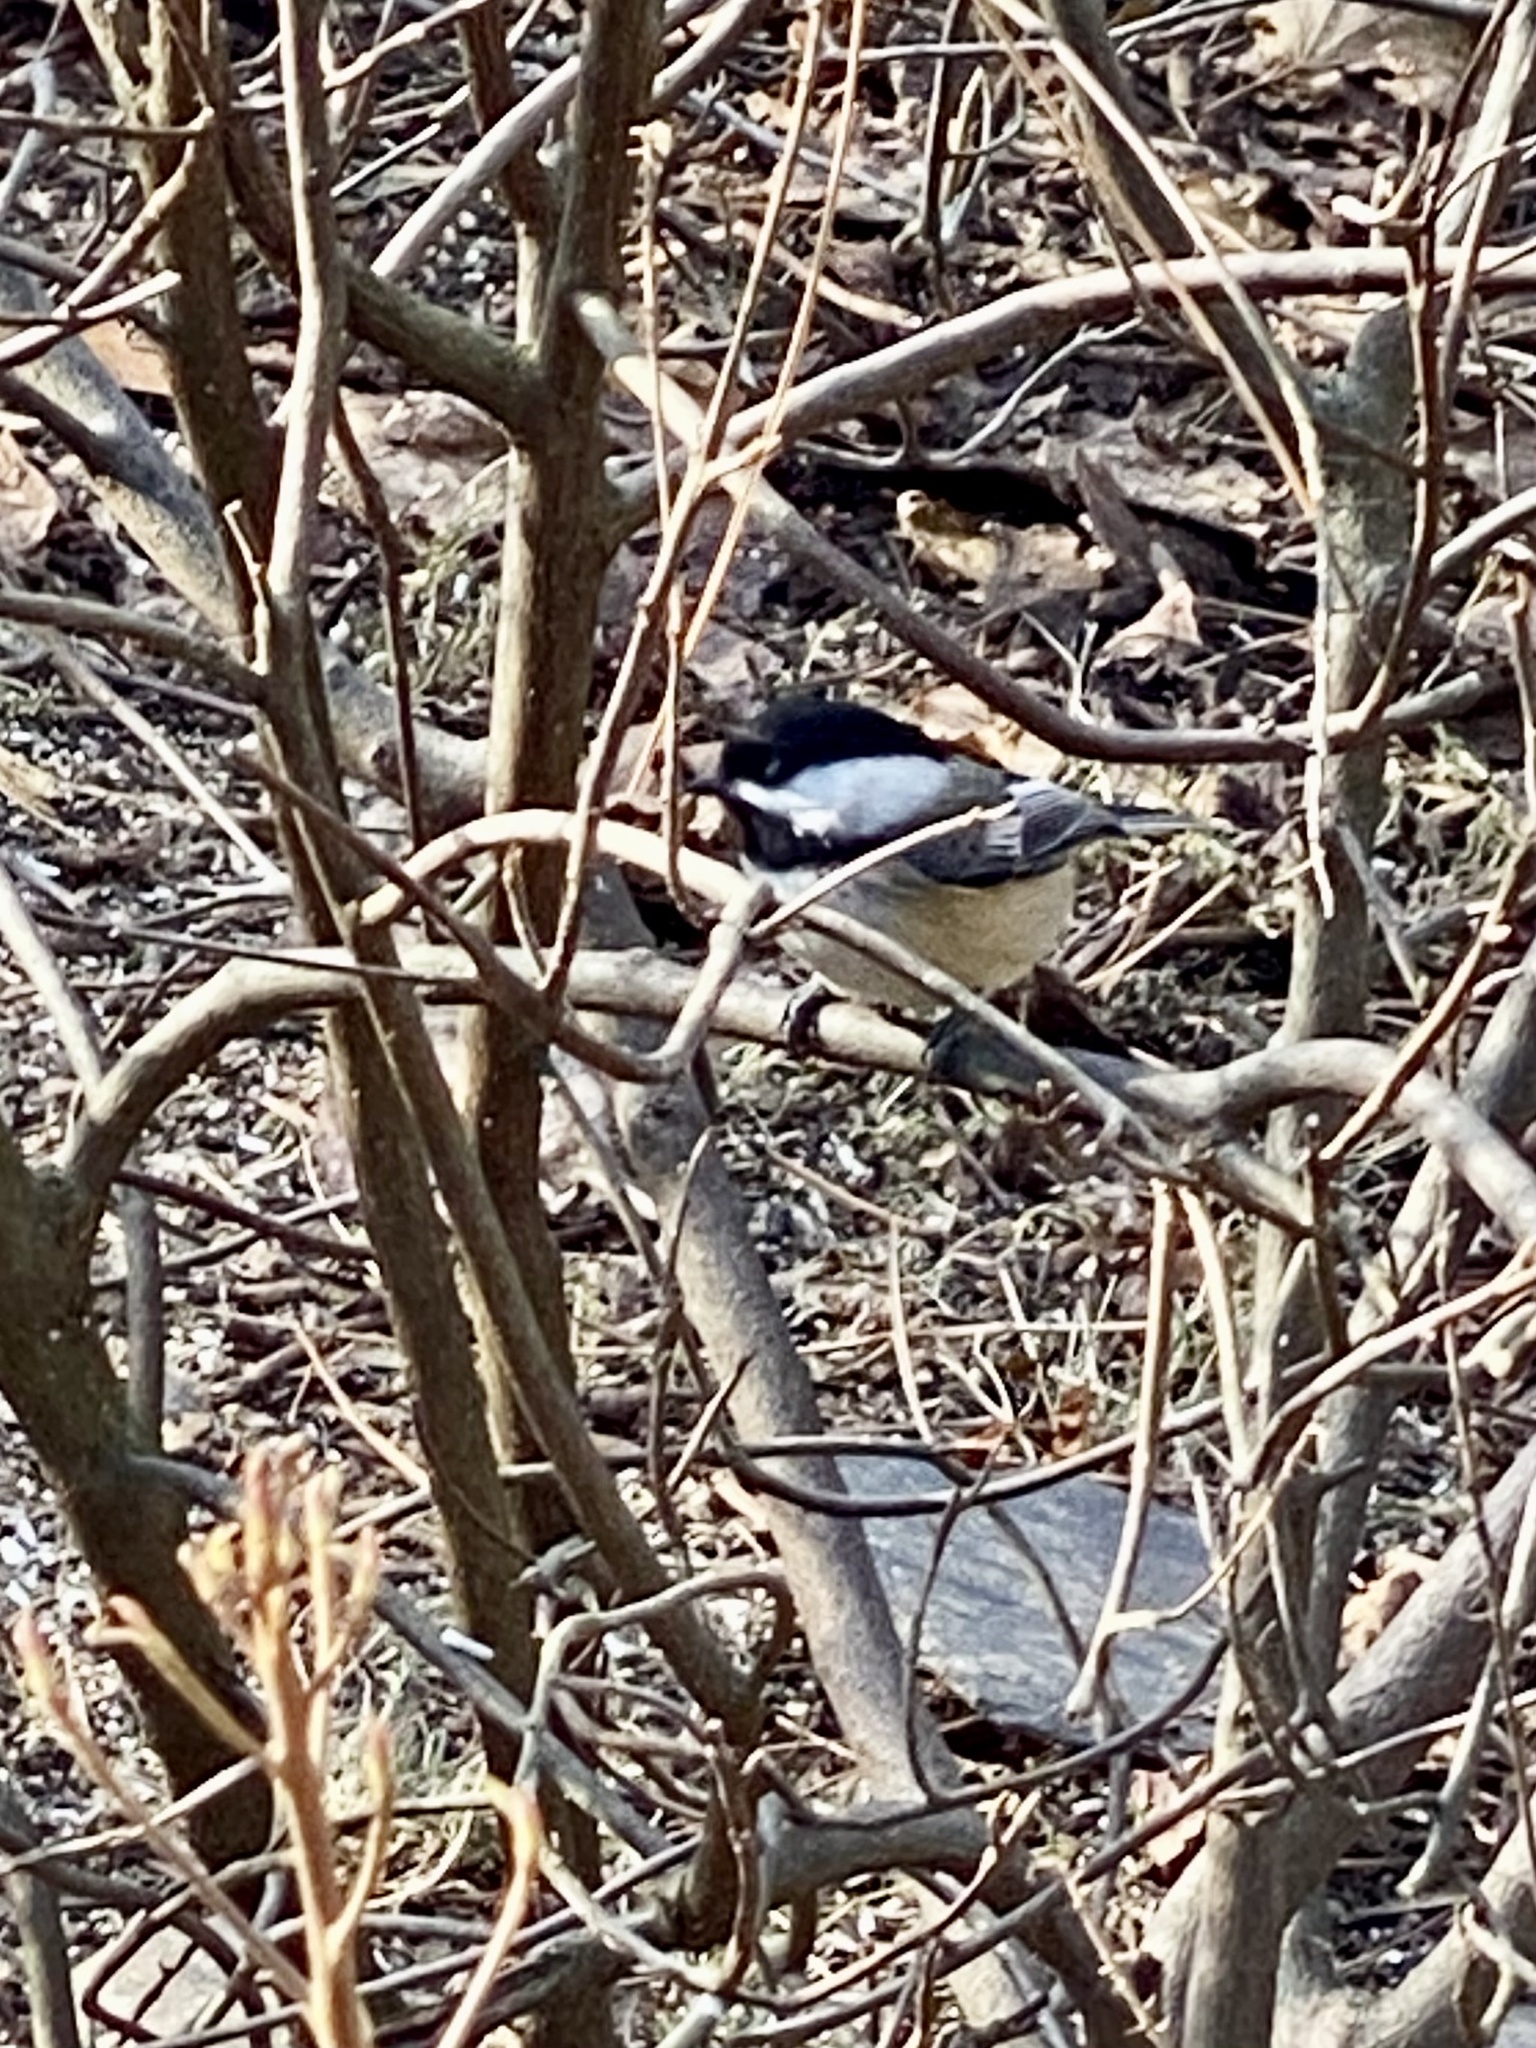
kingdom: Animalia
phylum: Chordata
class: Aves
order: Passeriformes
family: Paridae
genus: Poecile
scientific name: Poecile atricapillus
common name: Black-capped chickadee
